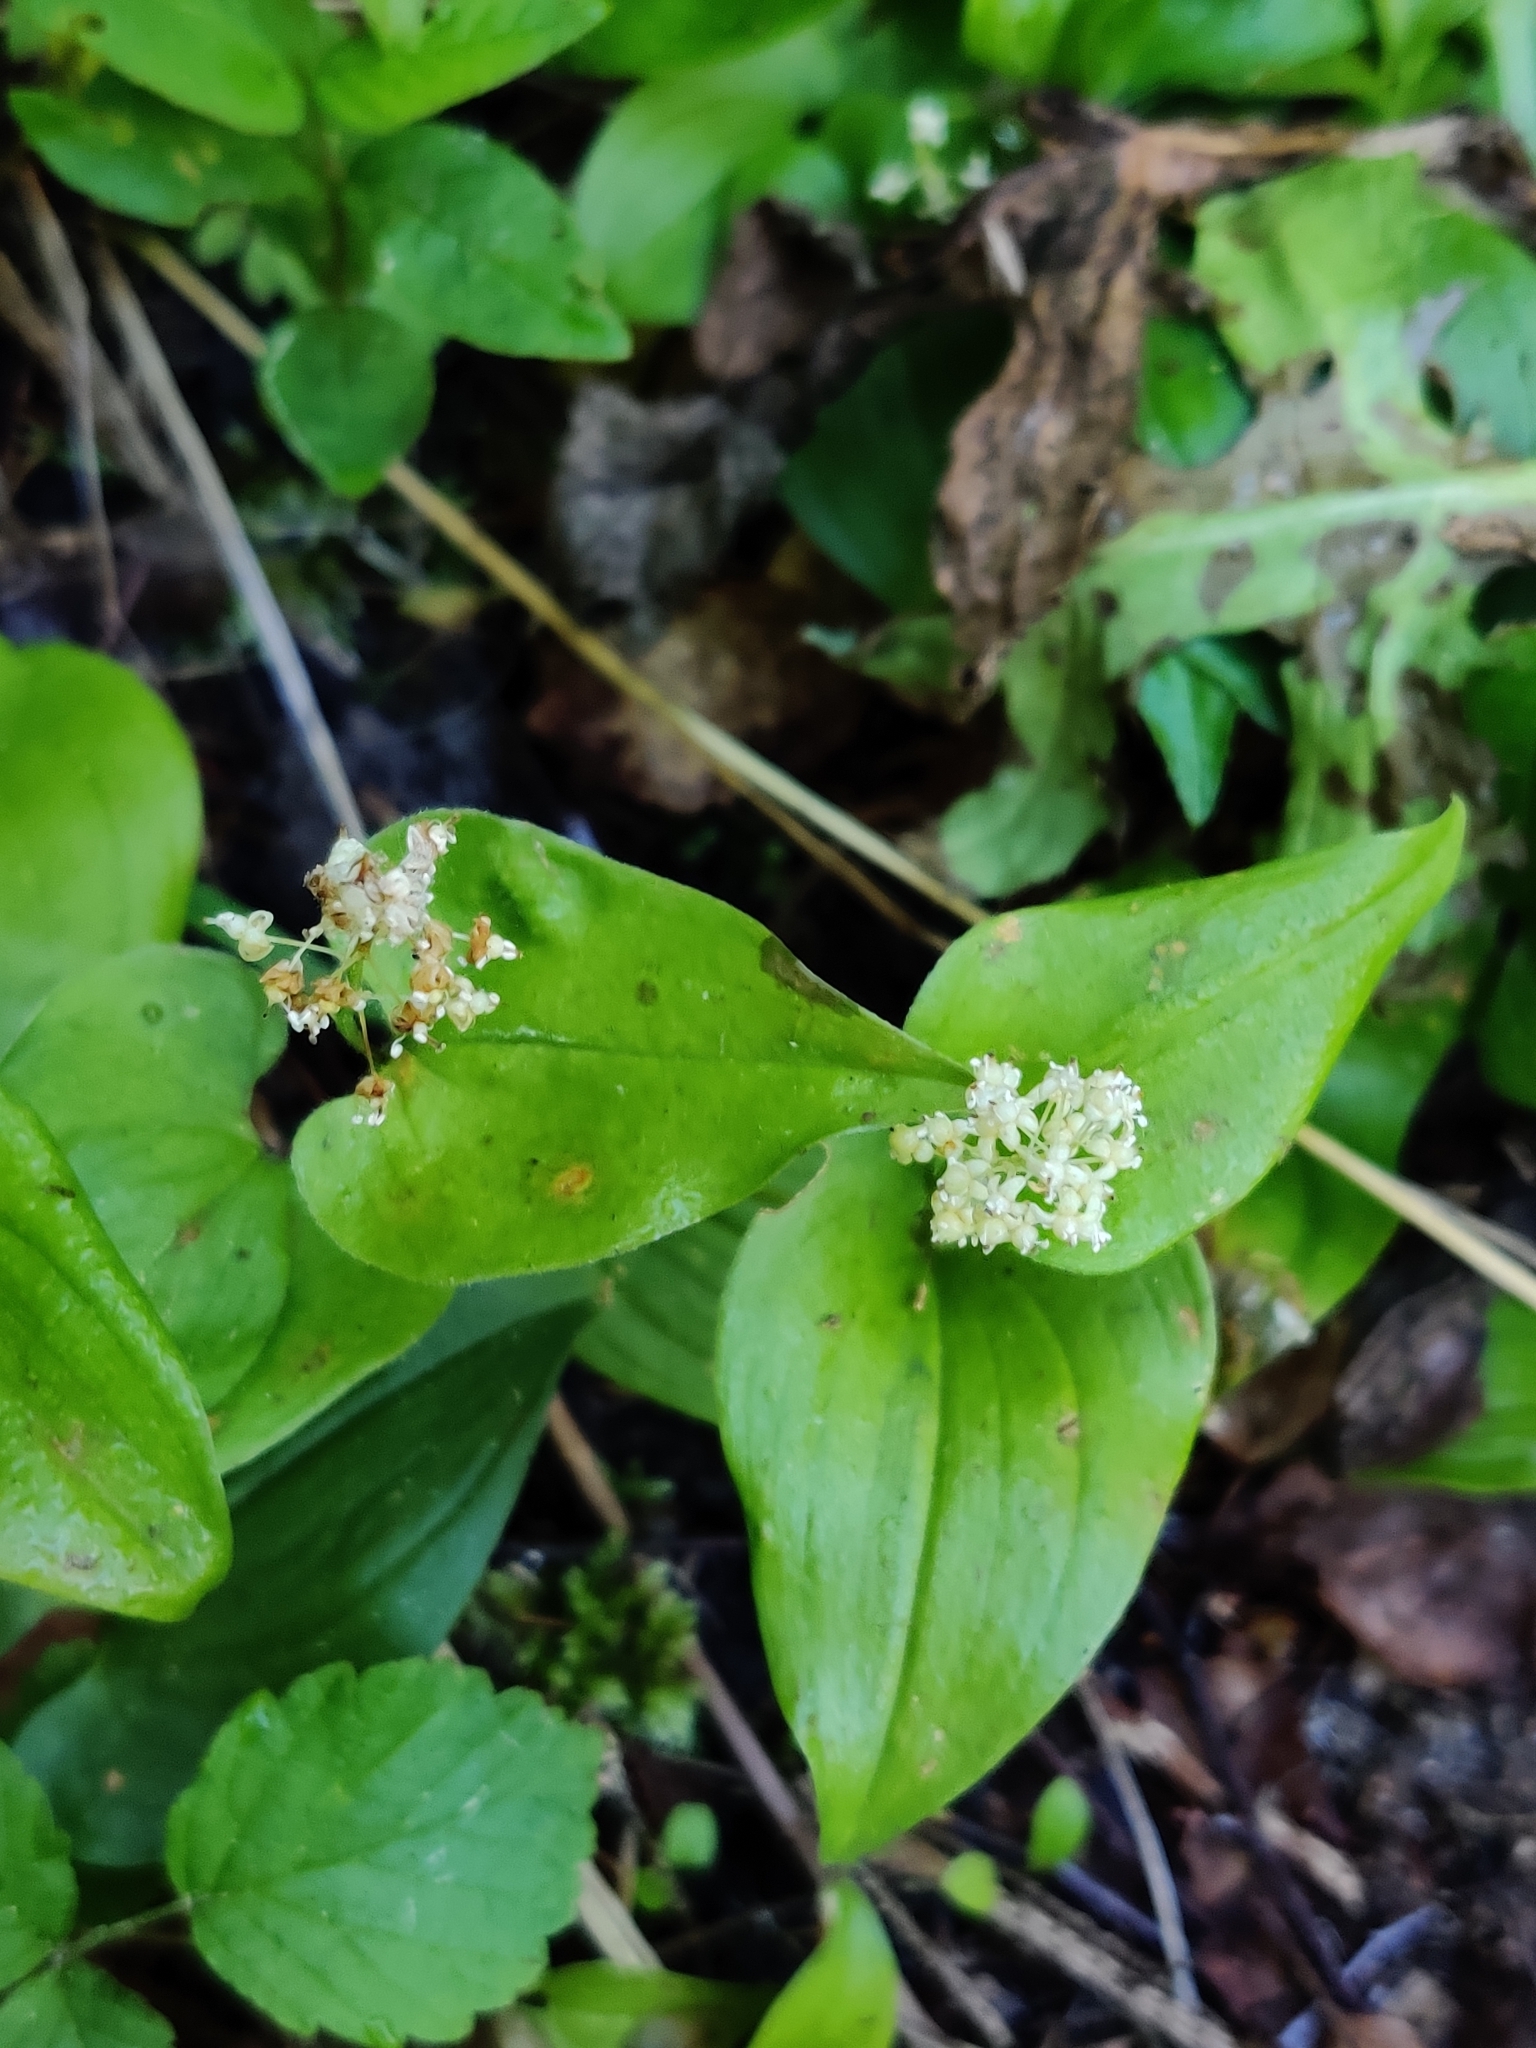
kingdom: Plantae
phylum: Tracheophyta
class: Liliopsida
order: Asparagales
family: Asparagaceae
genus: Maianthemum
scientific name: Maianthemum bifolium
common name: May lily
